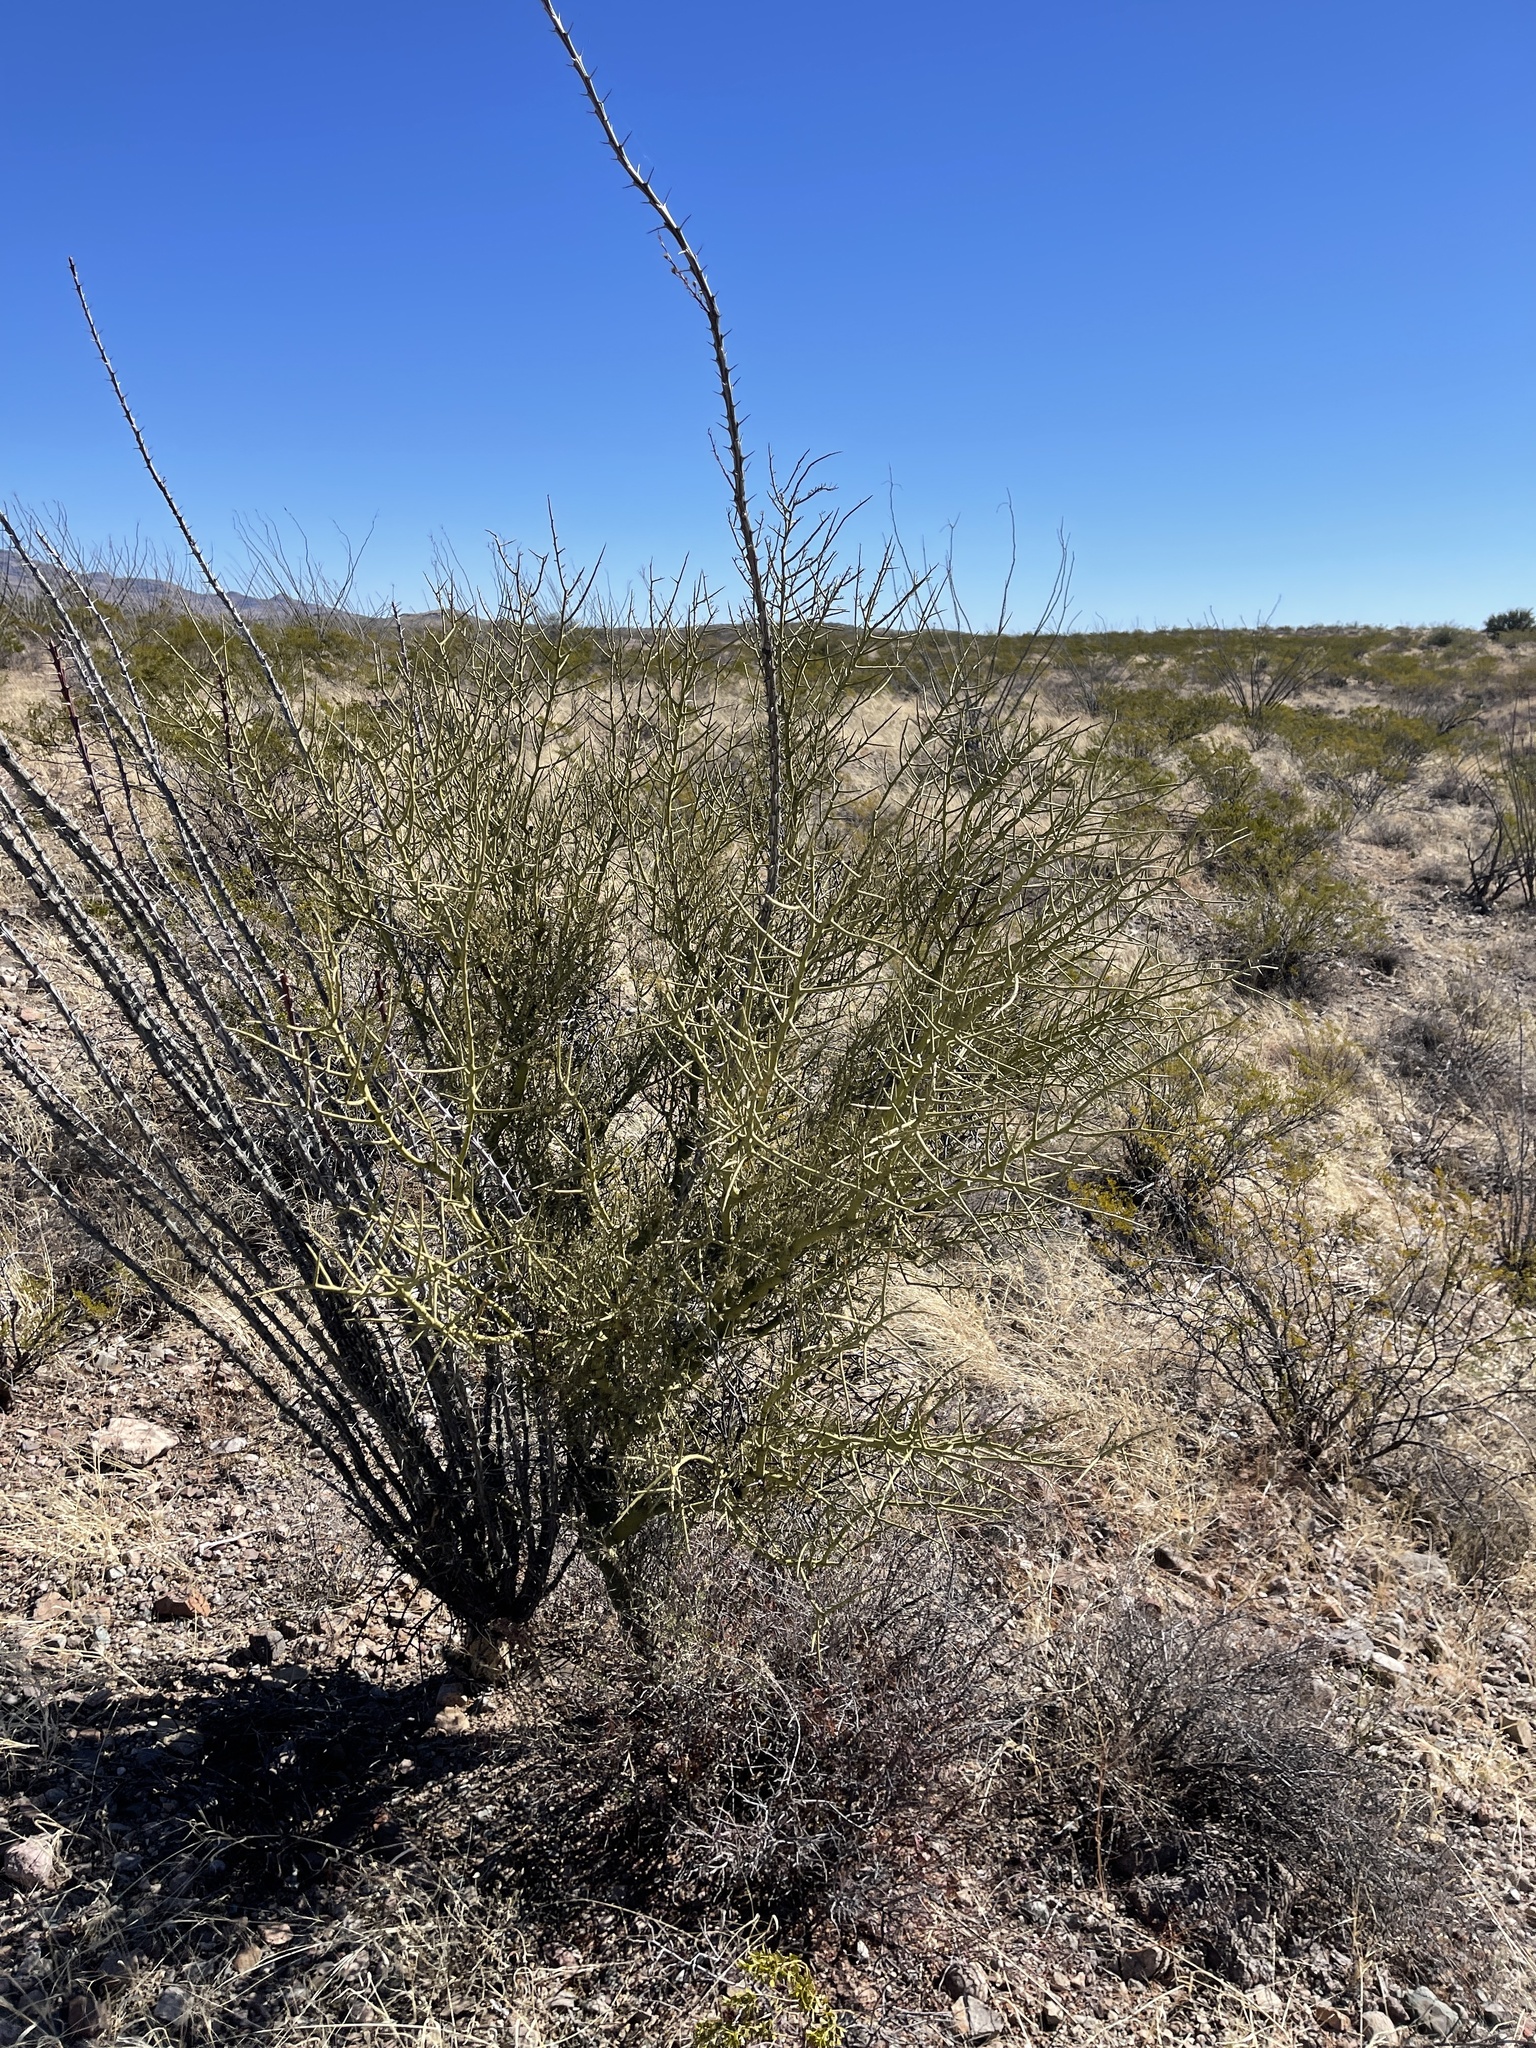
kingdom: Plantae
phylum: Tracheophyta
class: Magnoliopsida
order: Fabales
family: Fabaceae
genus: Parkinsonia
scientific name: Parkinsonia microphylla
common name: Yellow paloverde
